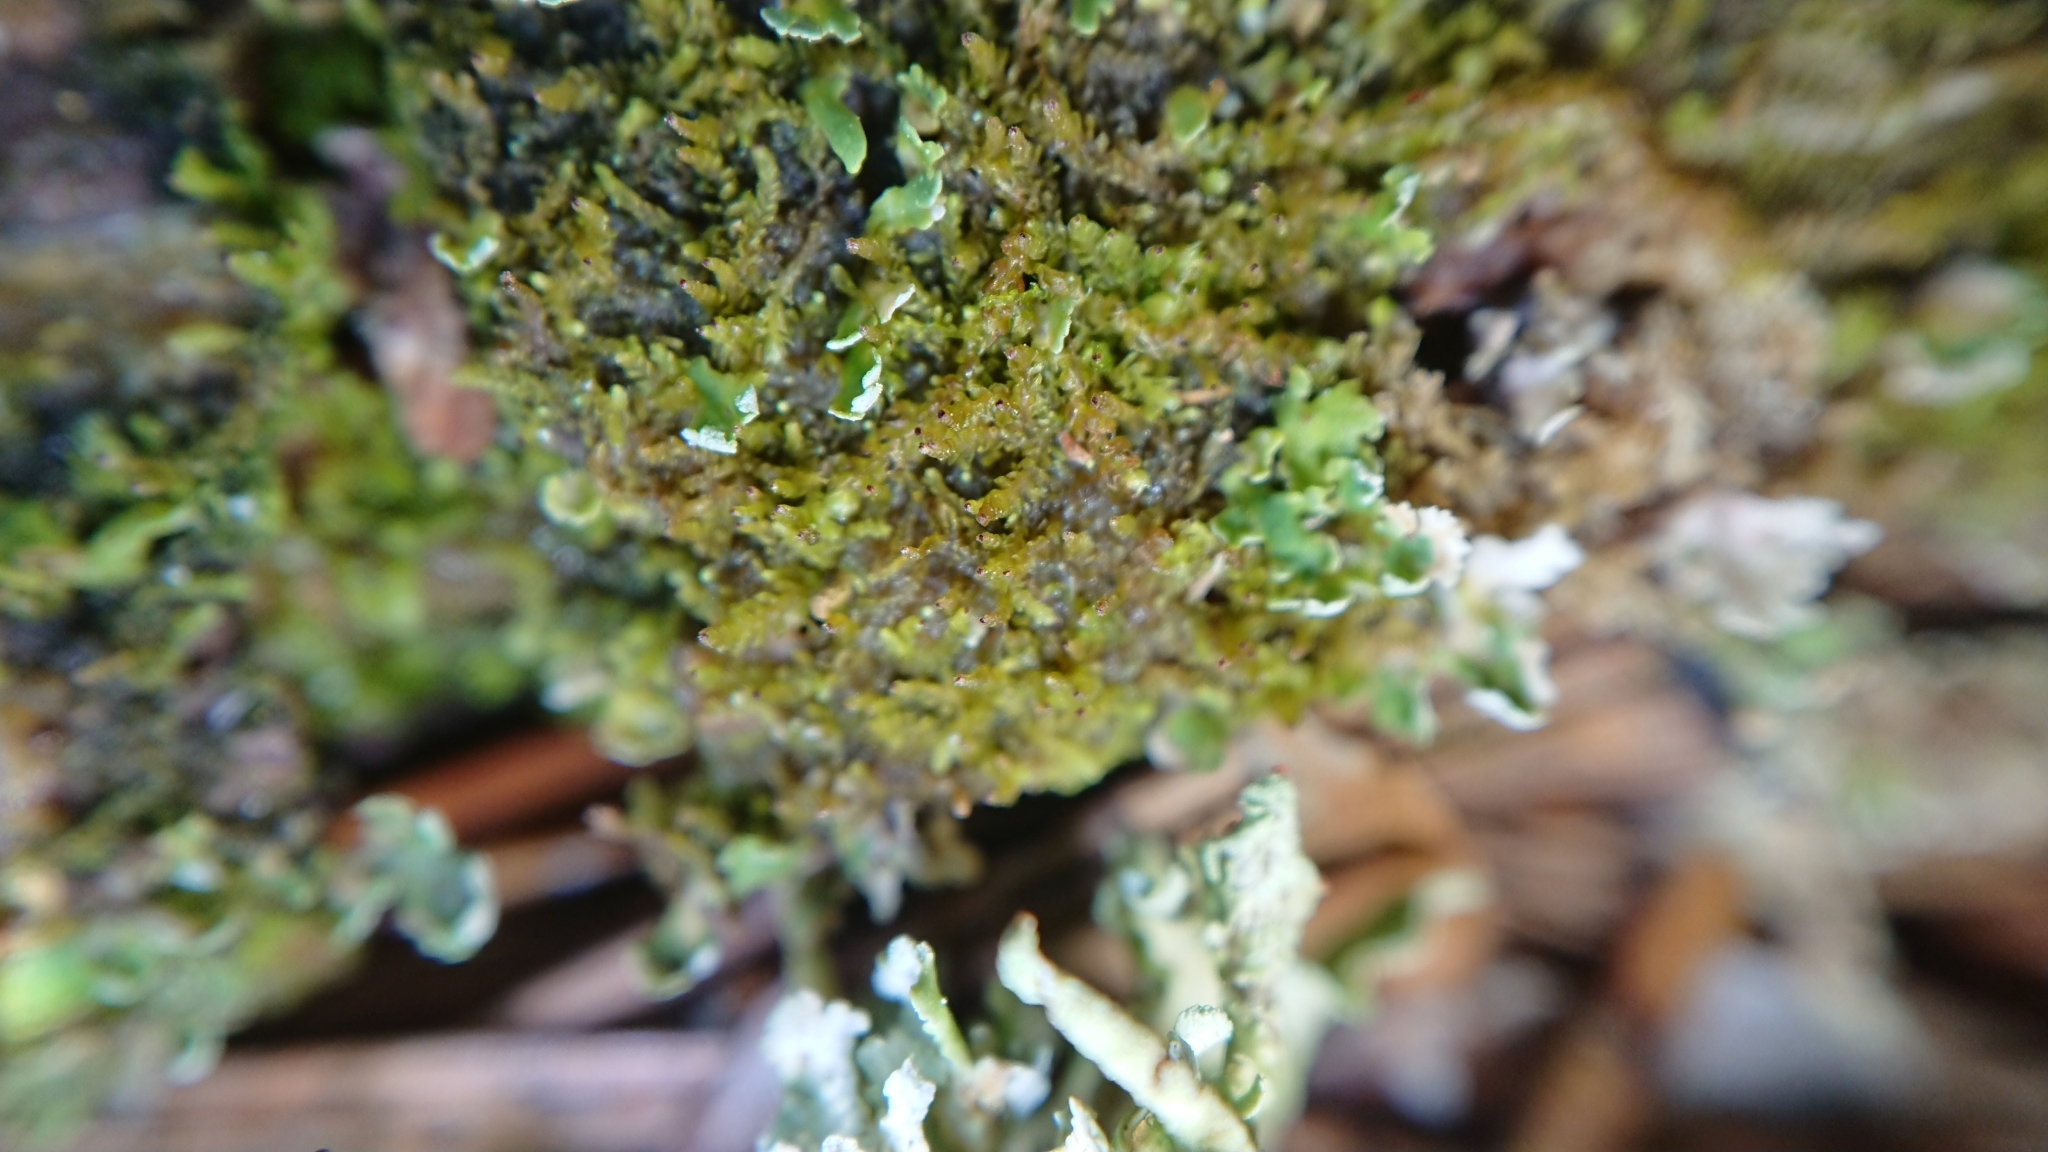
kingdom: Plantae
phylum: Marchantiophyta
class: Jungermanniopsida
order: Jungermanniales
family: Anastrophyllaceae
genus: Crossocalyx
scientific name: Crossocalyx hellerianus
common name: Heller's notchwort
